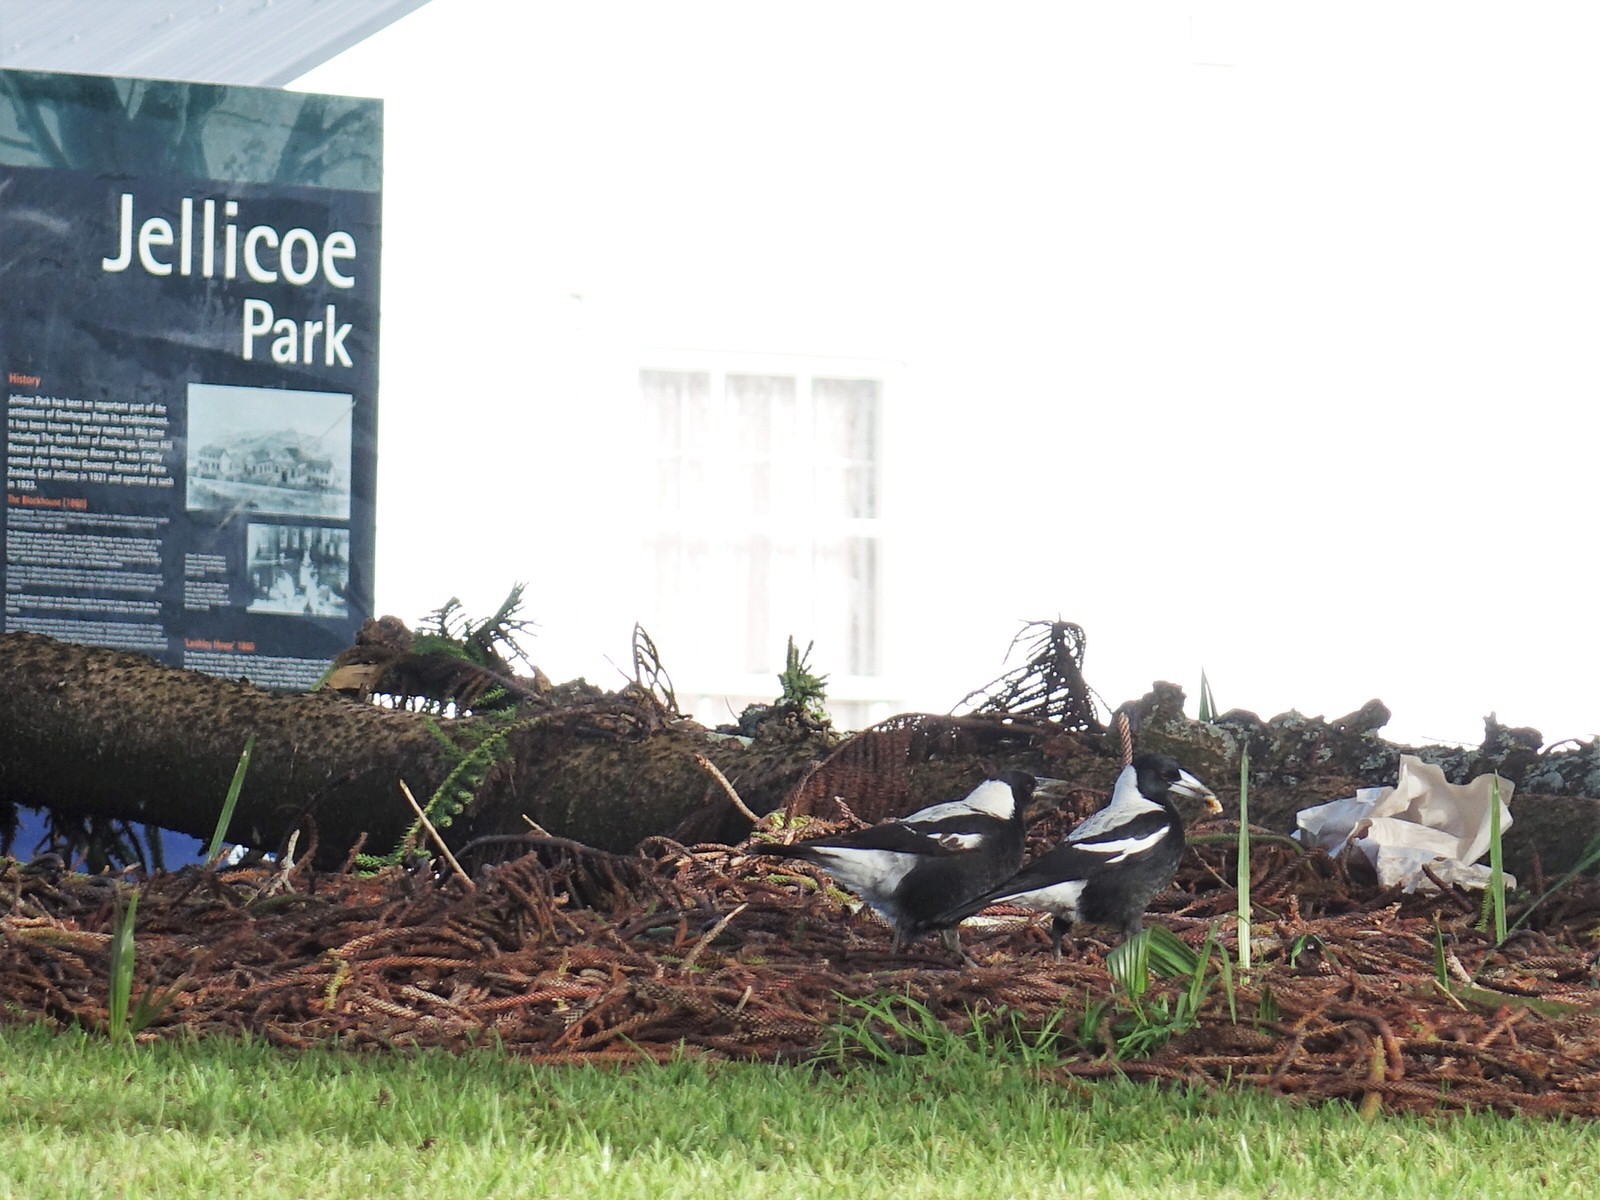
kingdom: Animalia
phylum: Chordata
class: Aves
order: Passeriformes
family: Cracticidae
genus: Gymnorhina
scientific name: Gymnorhina tibicen
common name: Australian magpie
